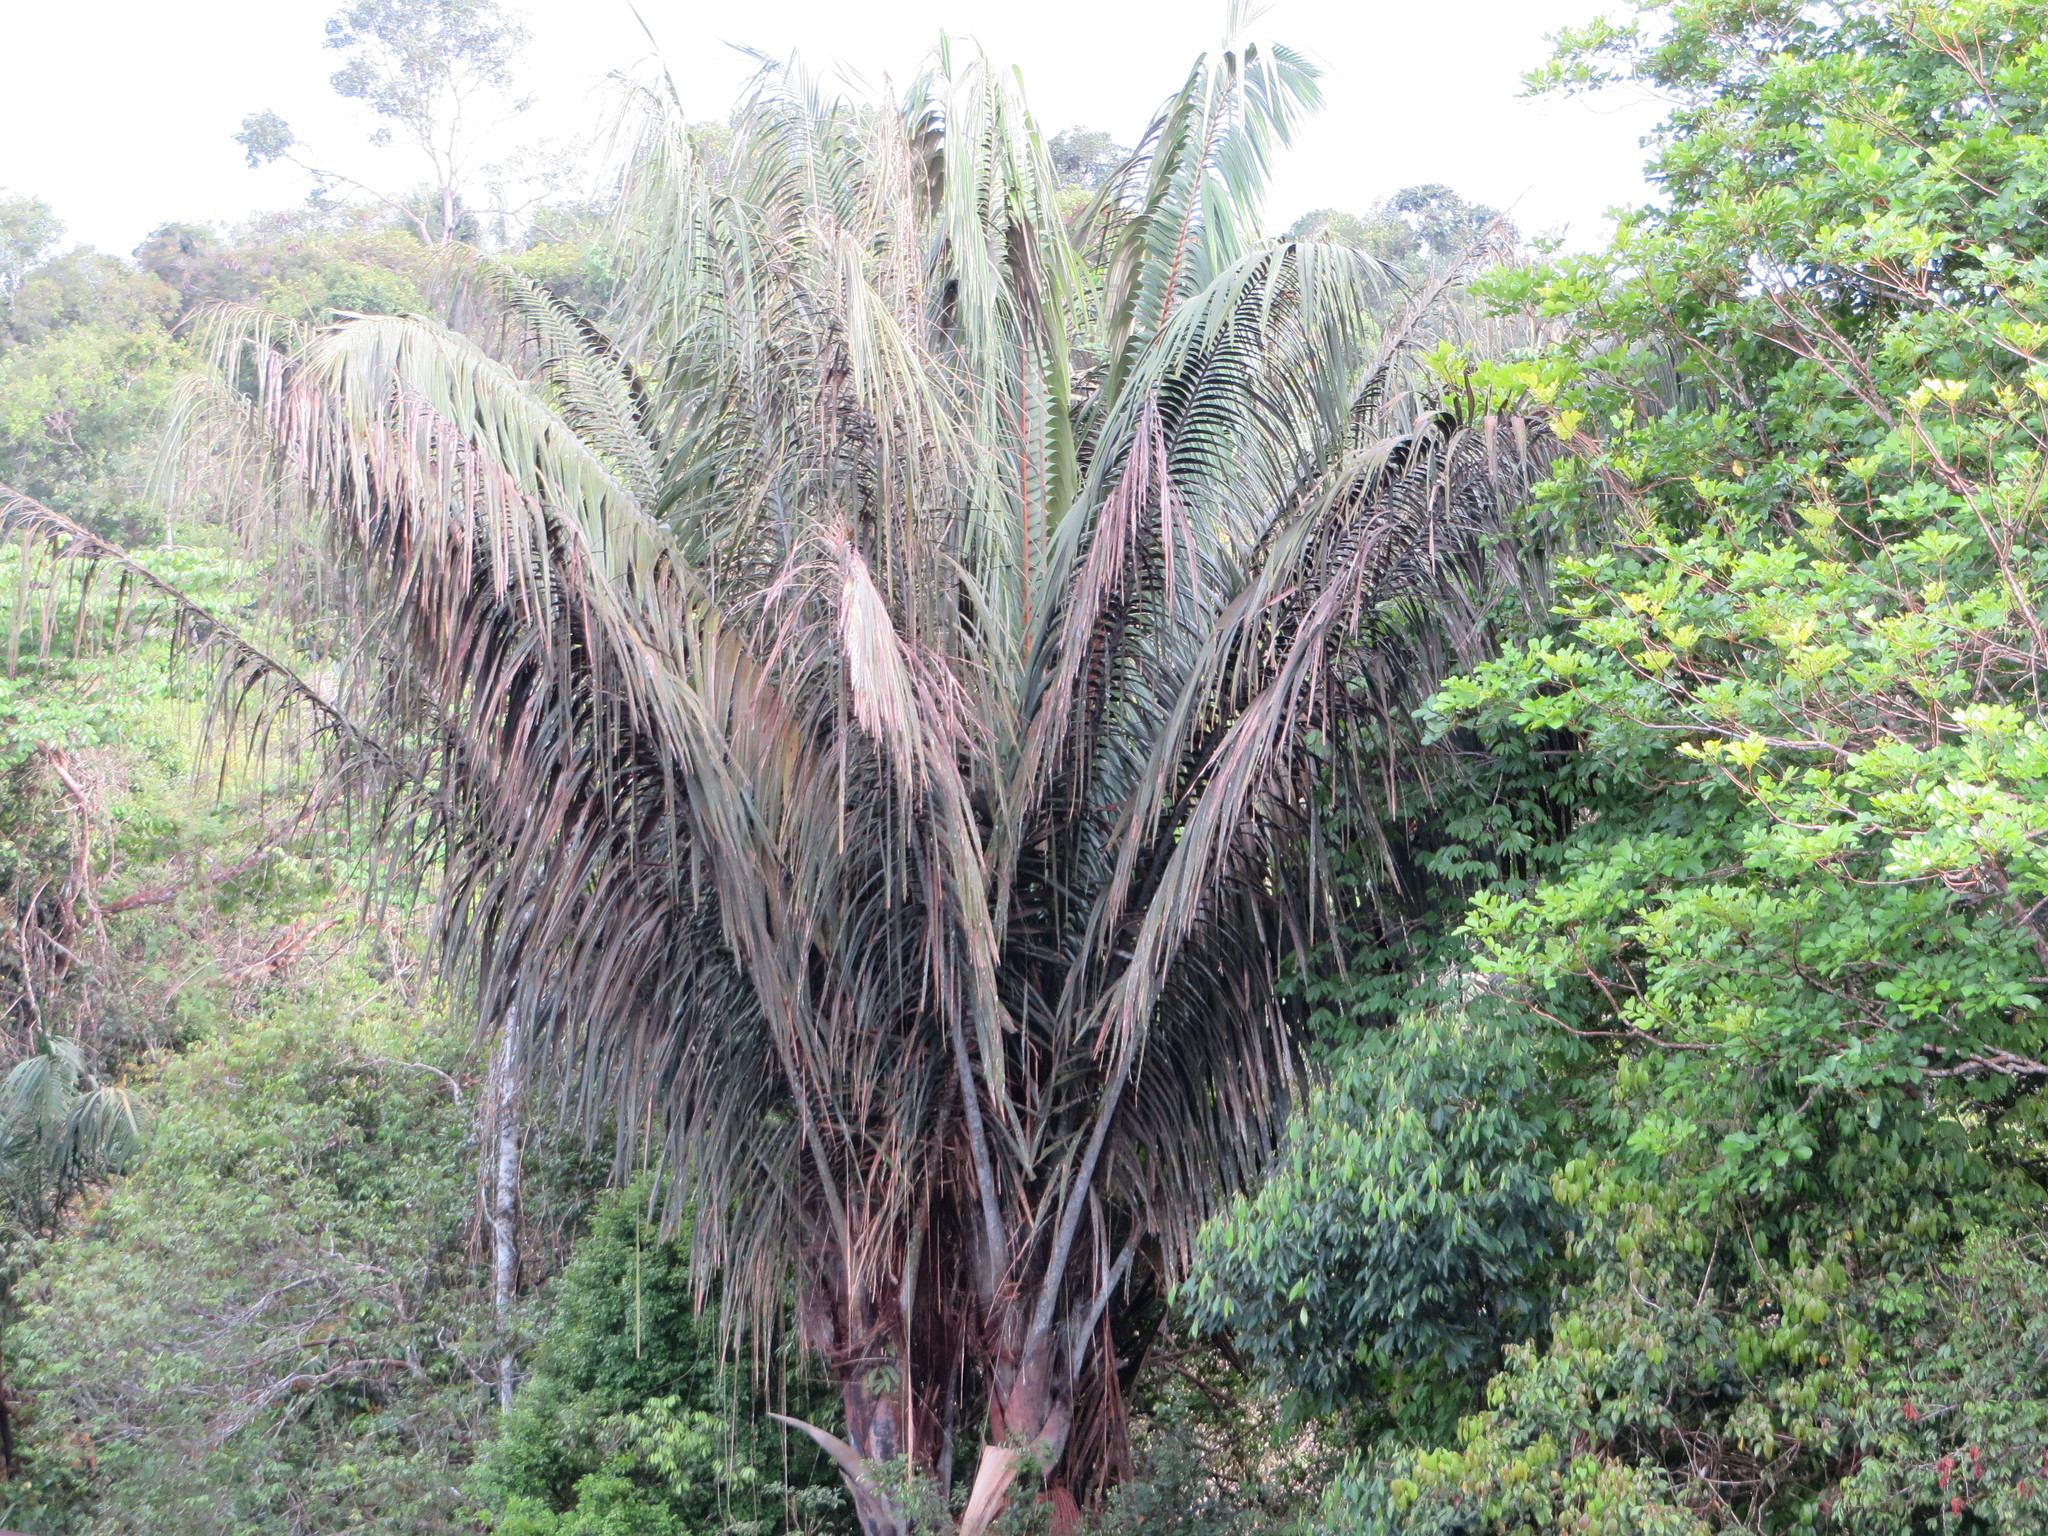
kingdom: Plantae
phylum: Tracheophyta
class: Liliopsida
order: Arecales
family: Arecaceae
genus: Oenocarpus
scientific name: Oenocarpus bataua
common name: Bataua palm
